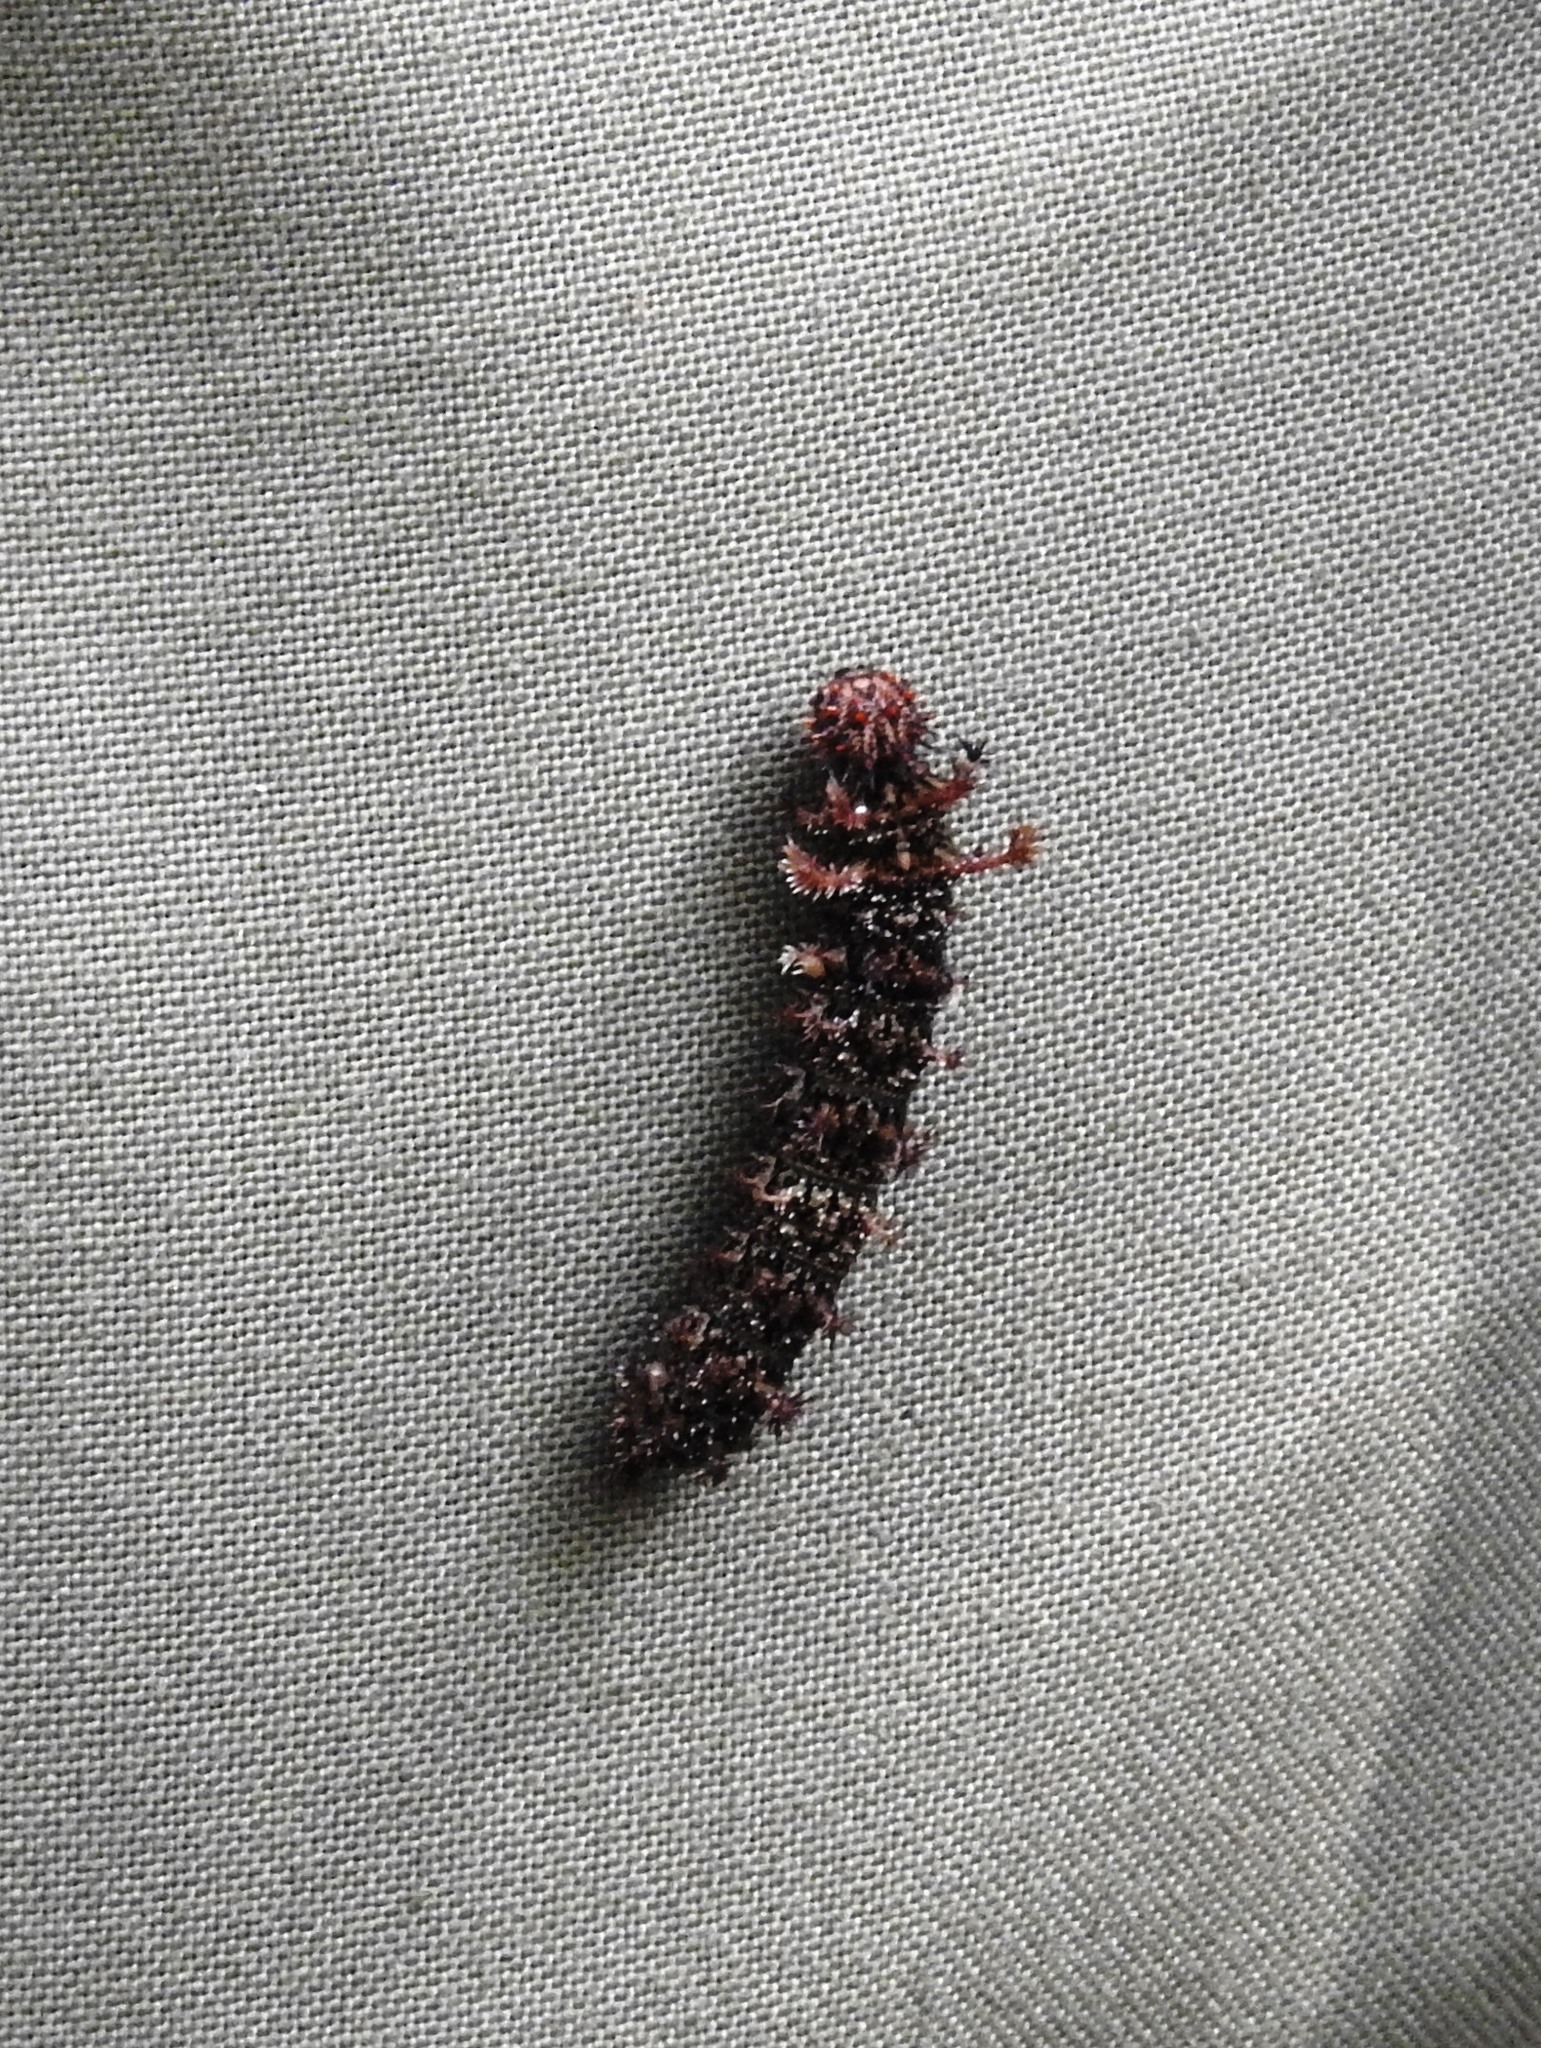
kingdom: Animalia
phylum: Arthropoda
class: Insecta
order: Lepidoptera
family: Nymphalidae
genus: Limenitis
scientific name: Limenitis Moduza procris
